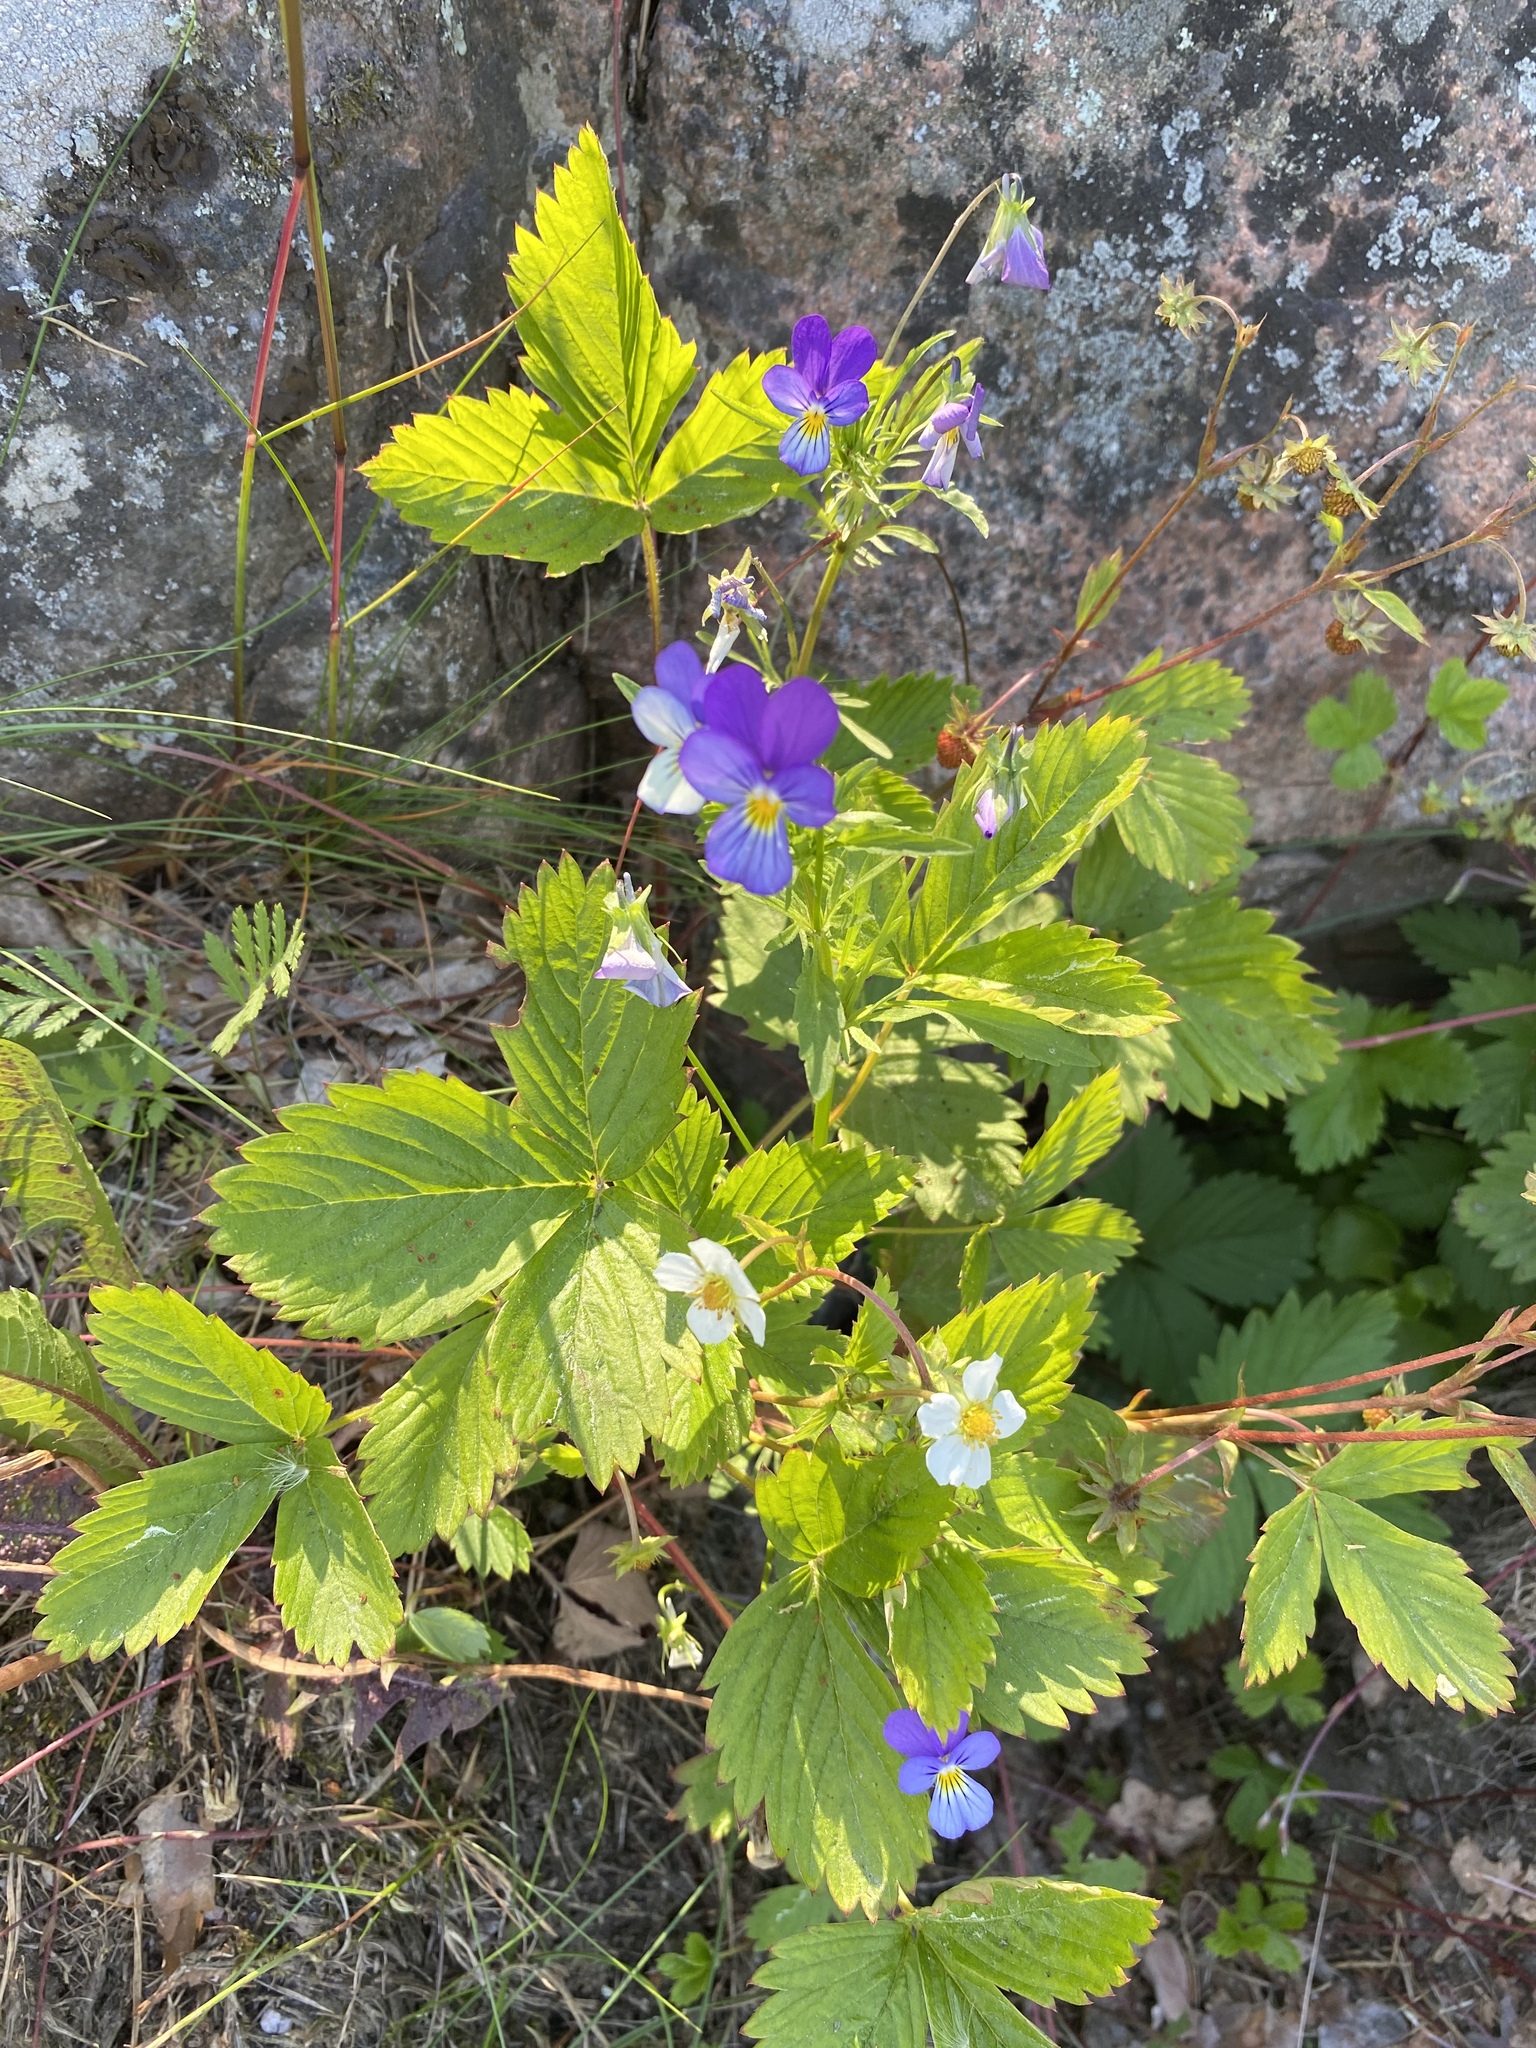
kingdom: Plantae
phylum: Tracheophyta
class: Magnoliopsida
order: Malpighiales
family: Violaceae
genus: Viola
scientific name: Viola tricolor
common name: Pansy
